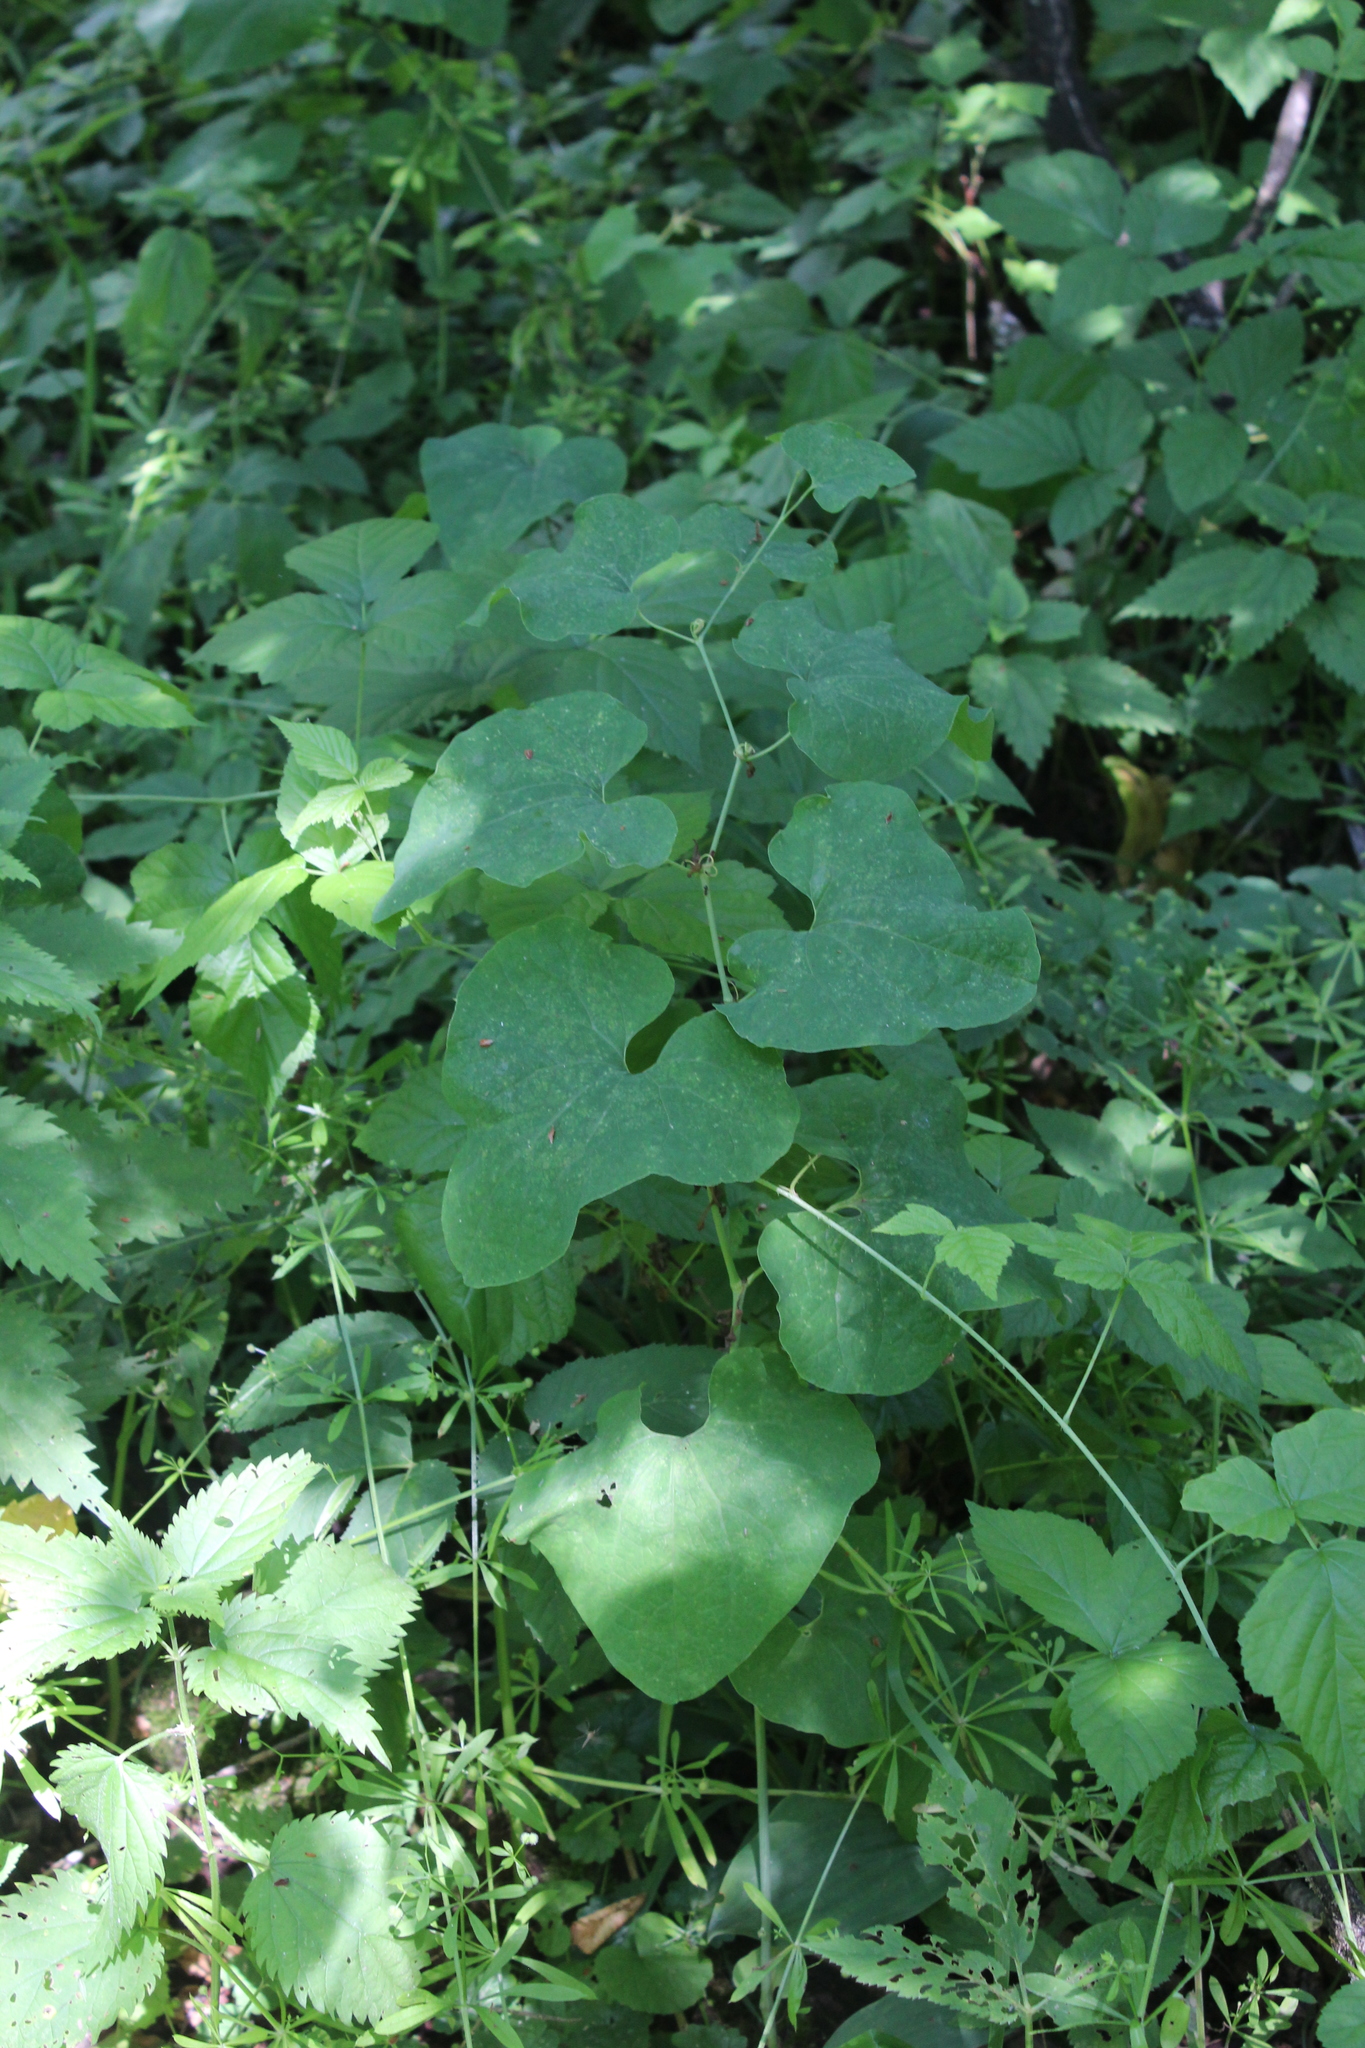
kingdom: Plantae
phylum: Tracheophyta
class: Magnoliopsida
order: Piperales
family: Aristolochiaceae
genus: Aristolochia
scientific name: Aristolochia clematitis
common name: Birthwort
